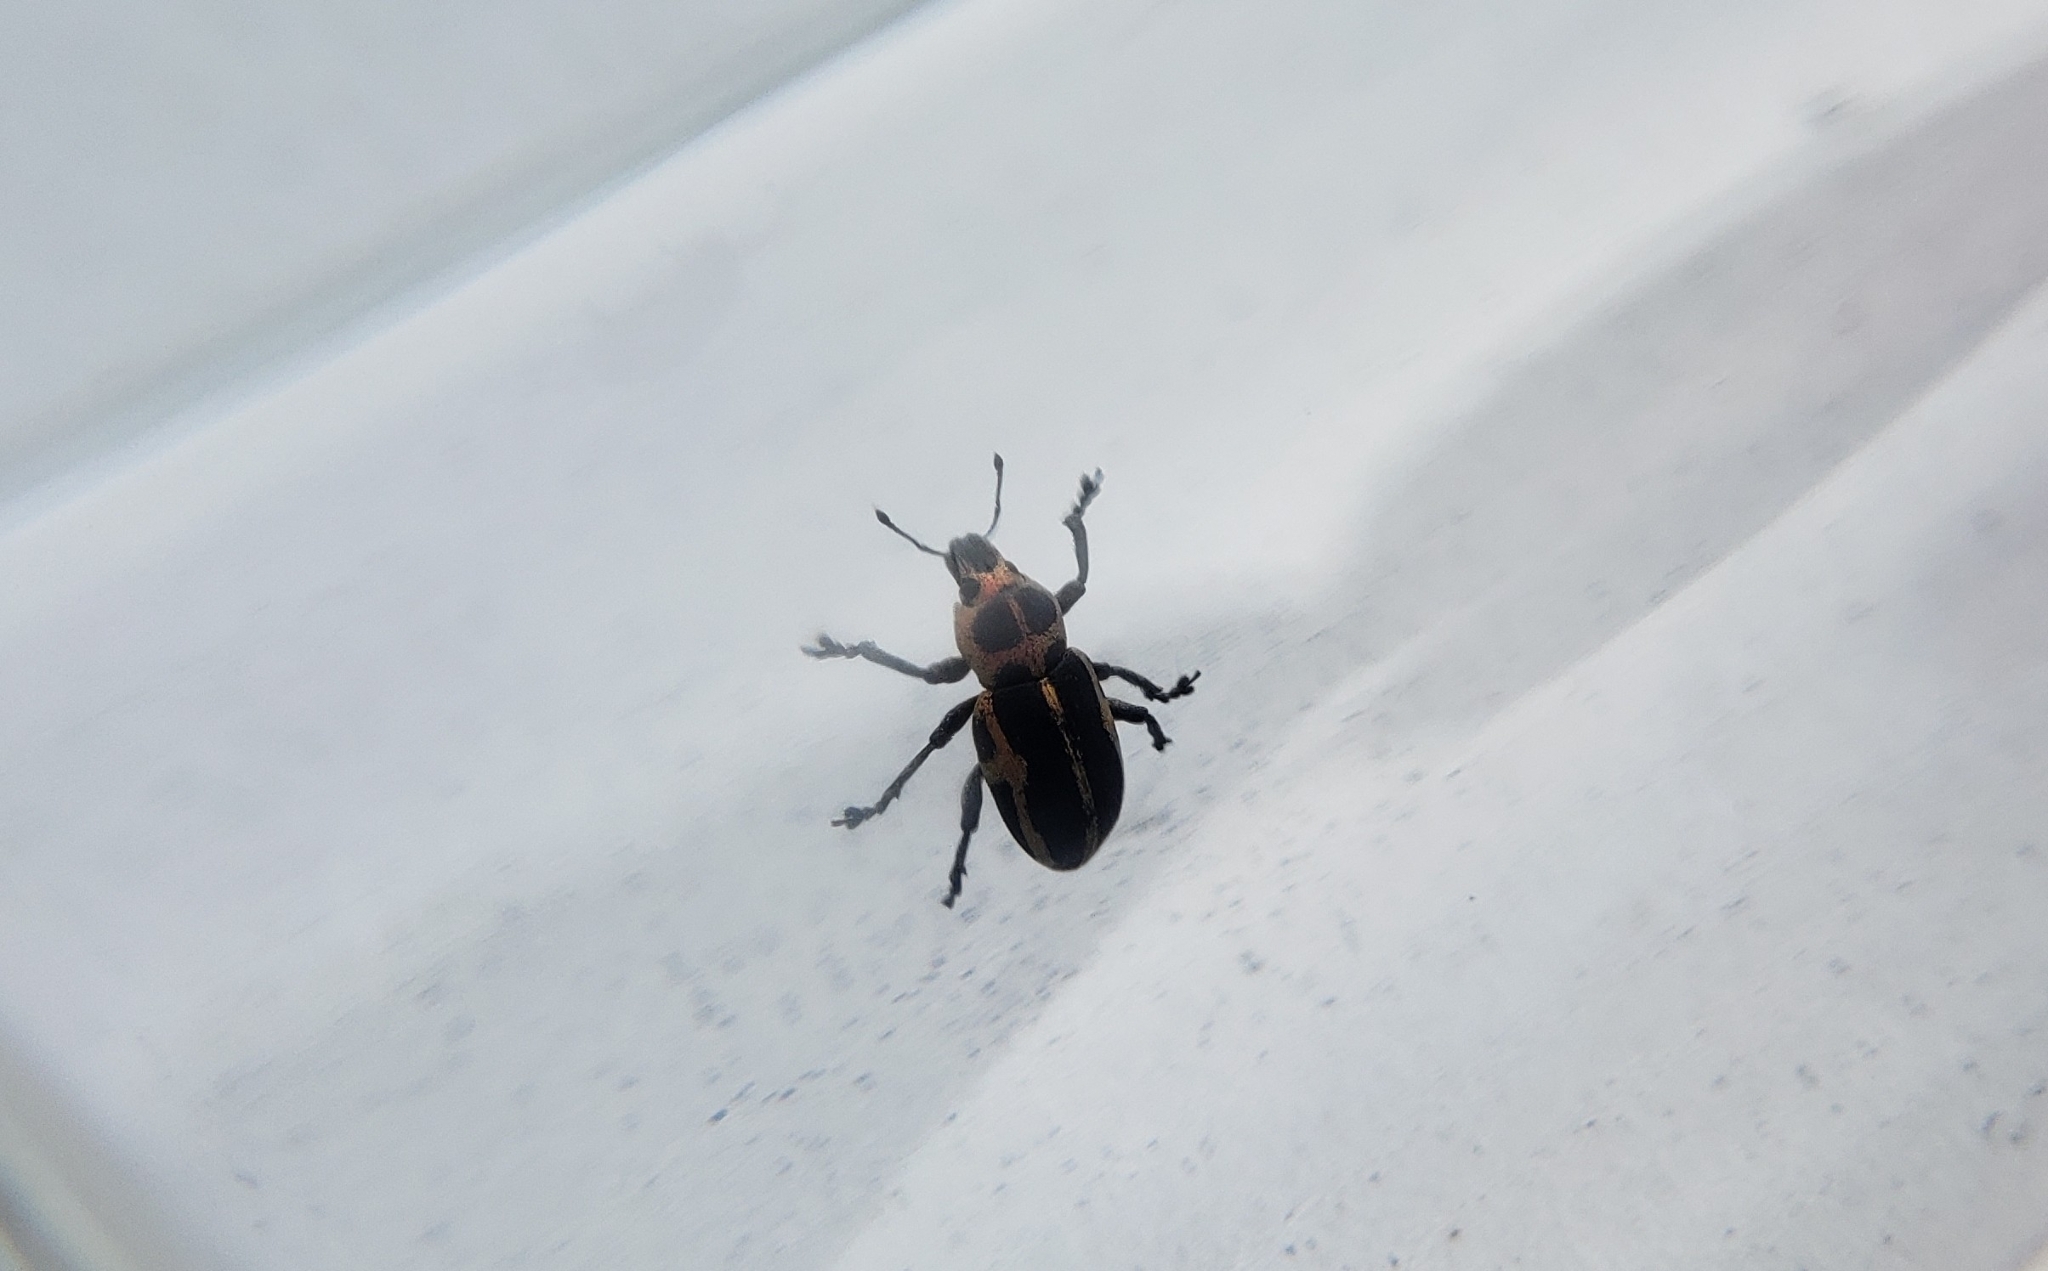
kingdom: Animalia
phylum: Arthropoda
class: Insecta
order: Coleoptera
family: Curculionidae
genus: Eudiagogus
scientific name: Eudiagogus pulcher
